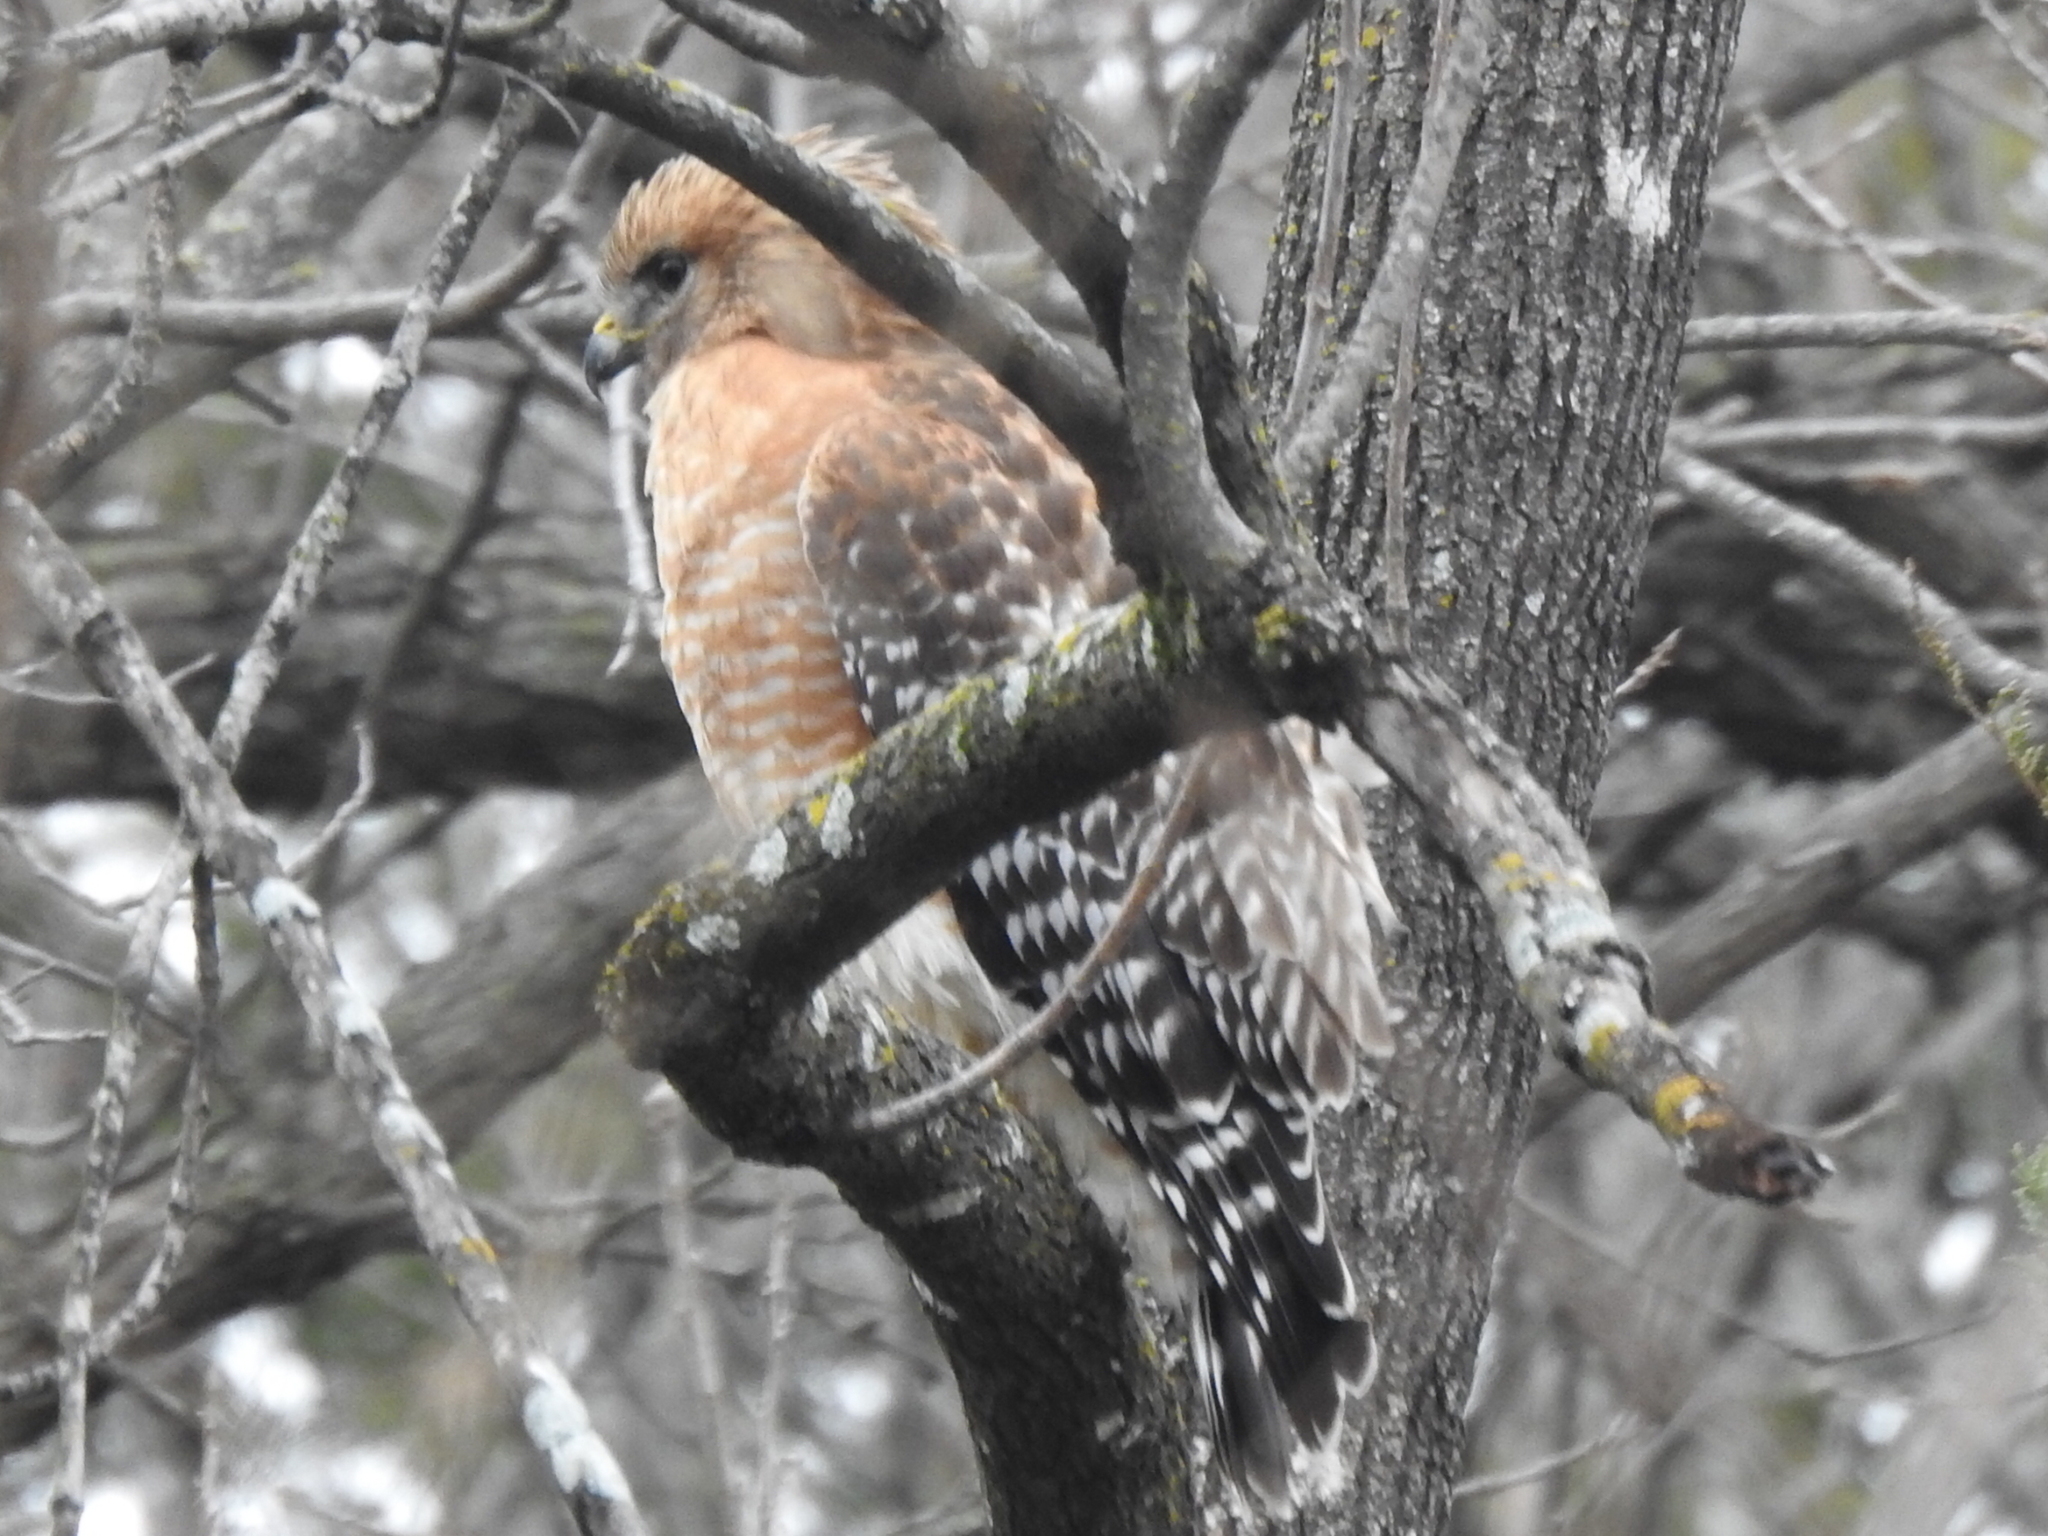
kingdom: Animalia
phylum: Chordata
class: Aves
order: Accipitriformes
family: Accipitridae
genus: Buteo
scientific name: Buteo lineatus
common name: Red-shouldered hawk
